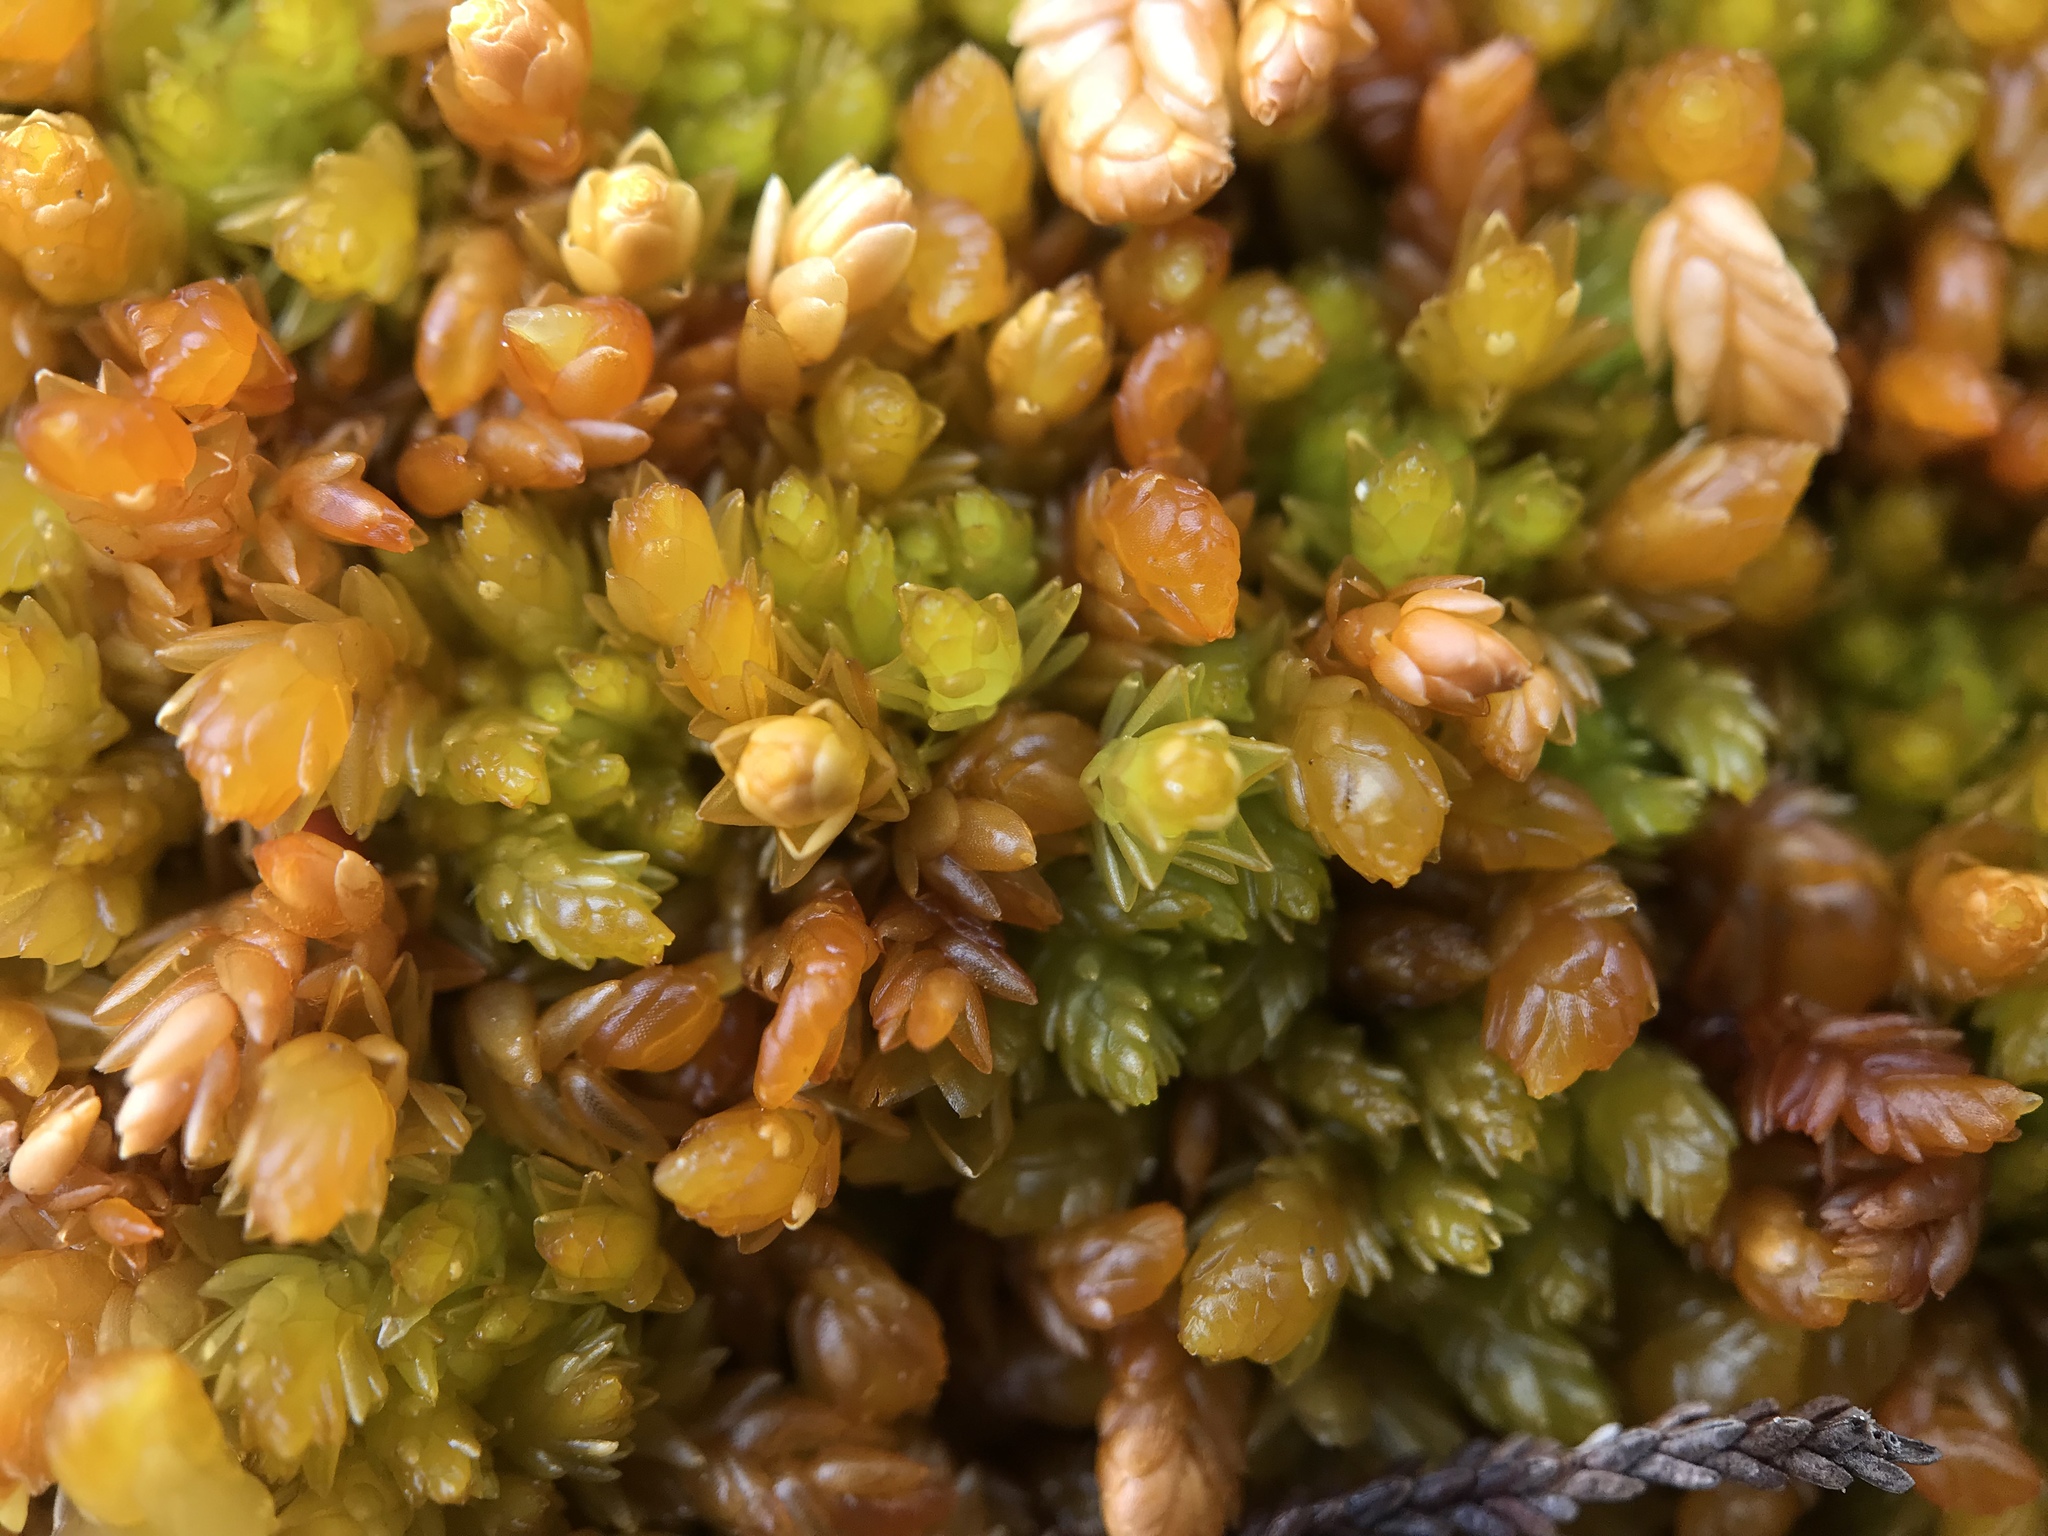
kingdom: Plantae
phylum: Bryophyta
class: Sphagnopsida
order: Sphagnales
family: Sphagnaceae
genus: Sphagnum
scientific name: Sphagnum compactum
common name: Compact peat moss
